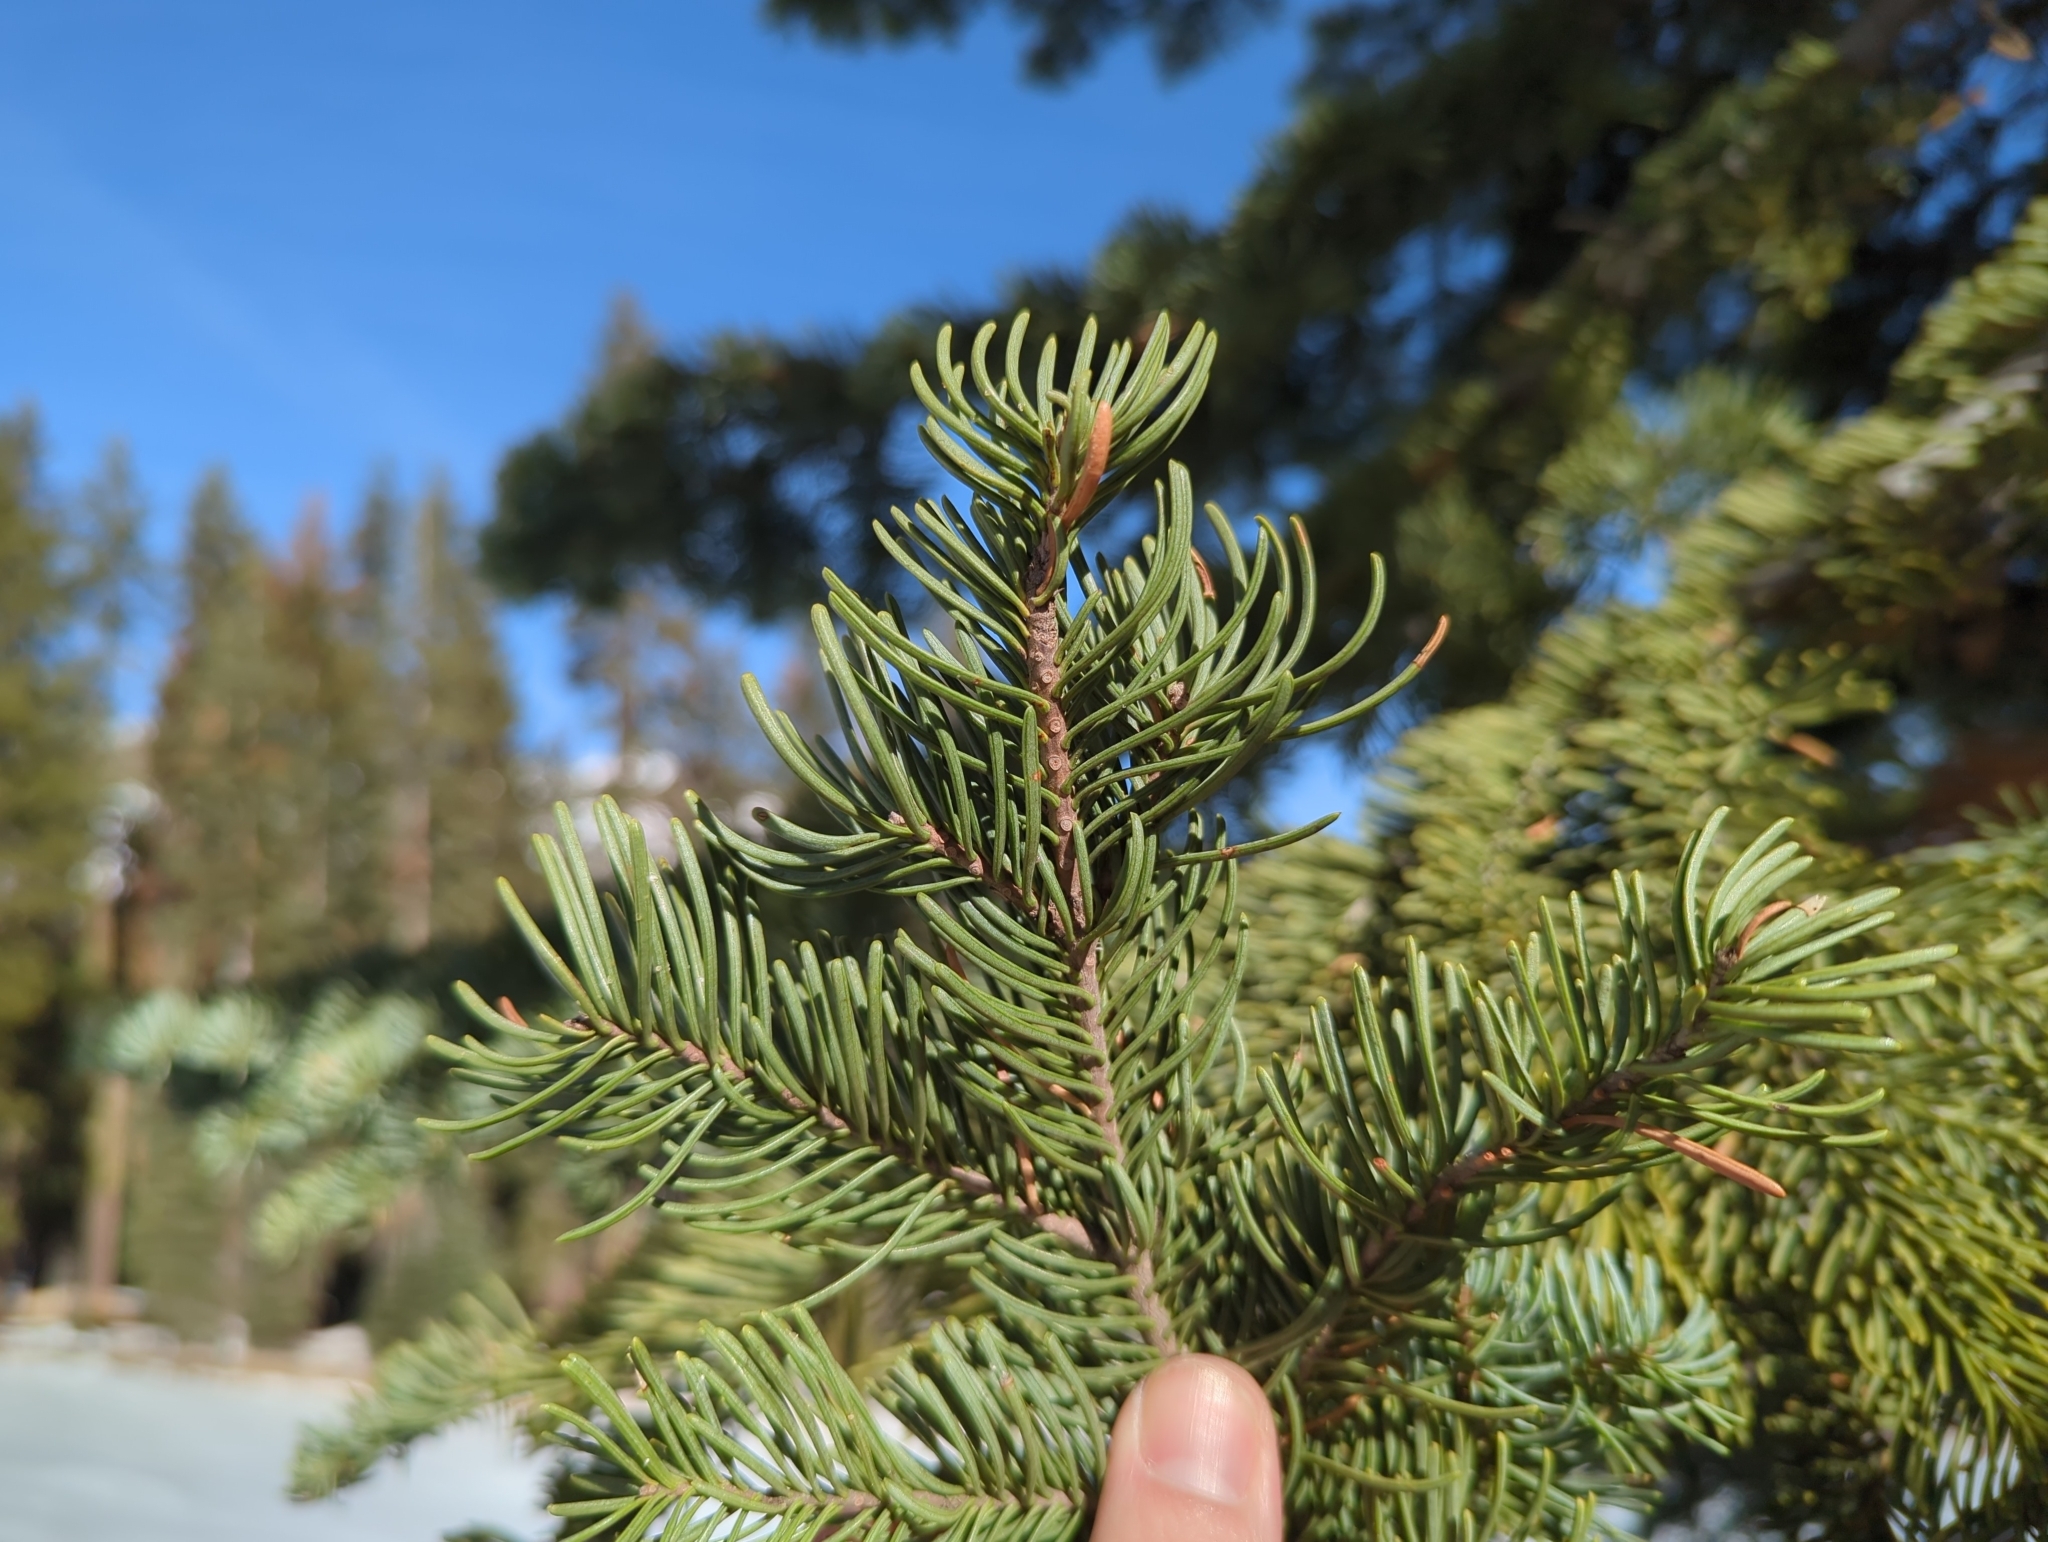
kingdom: Plantae
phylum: Tracheophyta
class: Pinopsida
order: Pinales
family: Pinaceae
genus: Abies
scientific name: Abies magnifica bis
